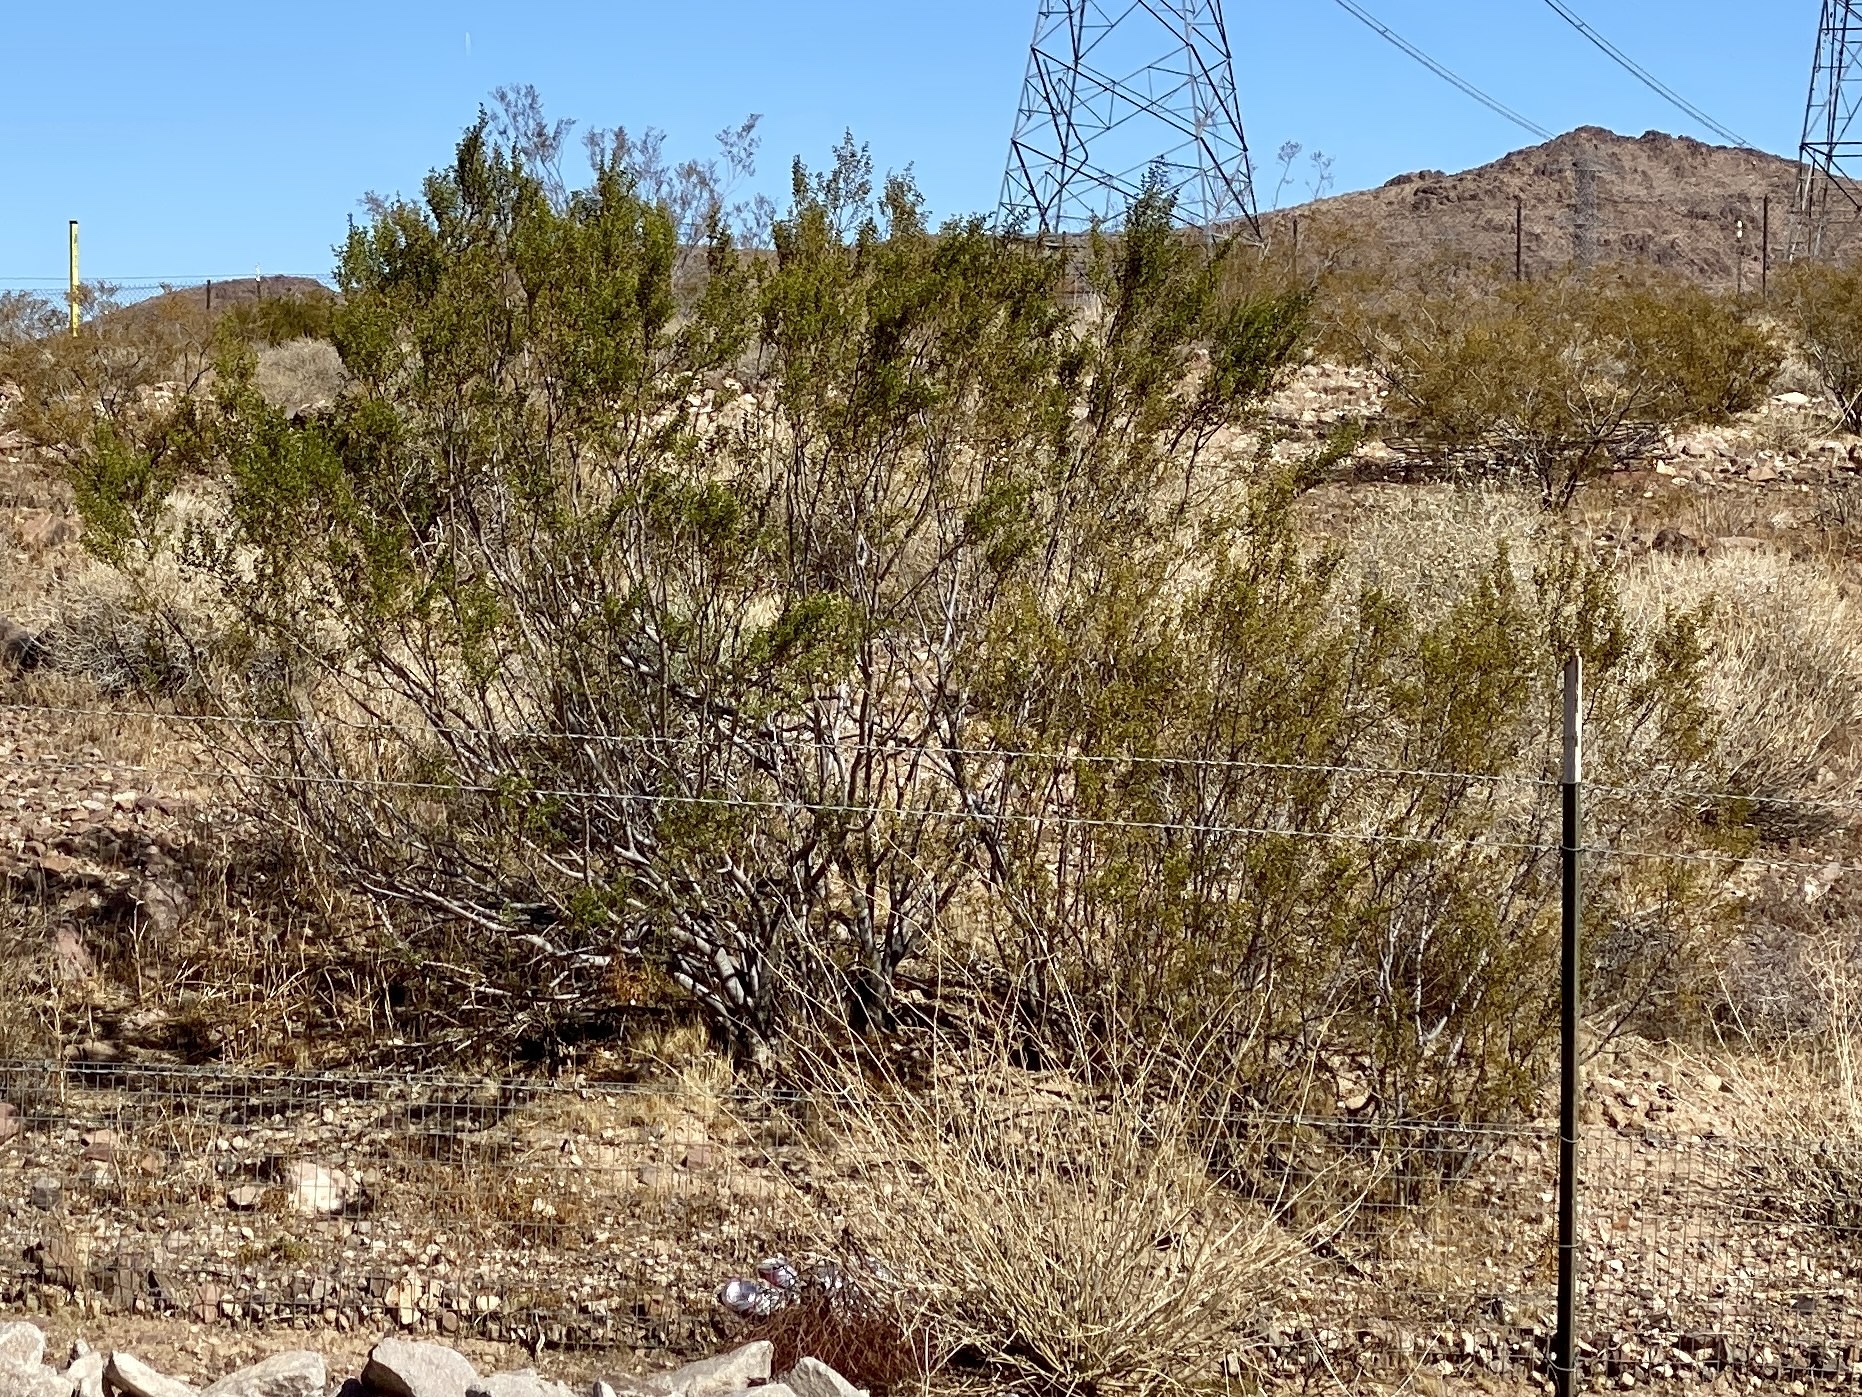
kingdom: Plantae
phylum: Tracheophyta
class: Magnoliopsida
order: Zygophyllales
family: Zygophyllaceae
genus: Larrea
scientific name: Larrea tridentata
